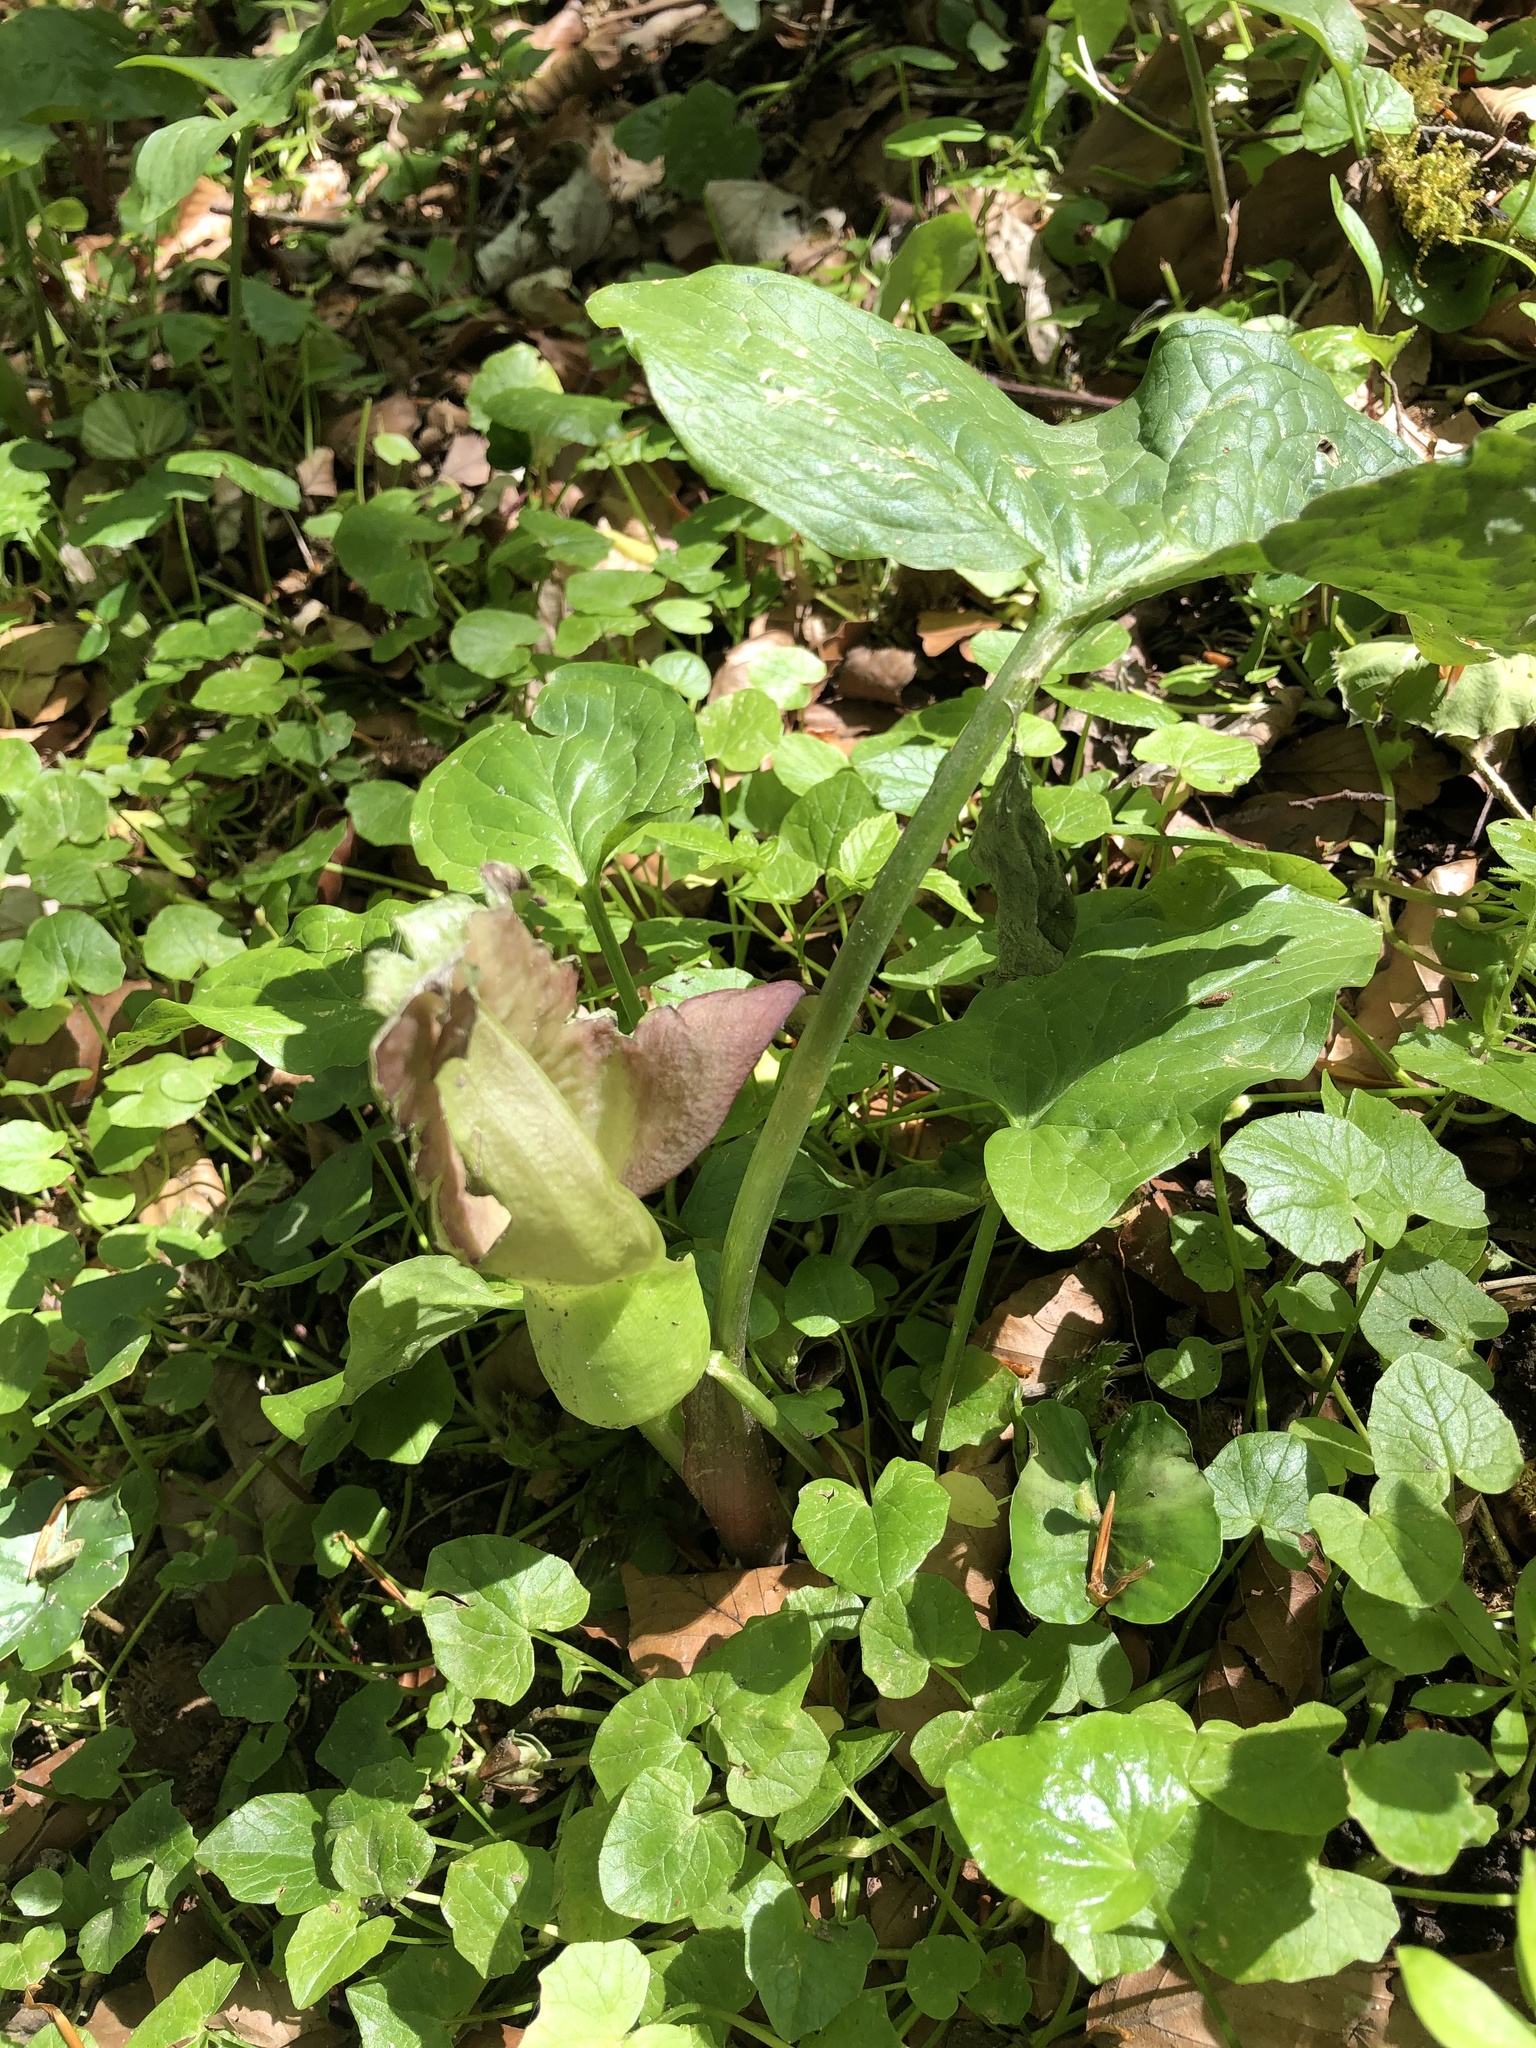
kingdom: Plantae
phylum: Tracheophyta
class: Liliopsida
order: Alismatales
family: Araceae
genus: Arum
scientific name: Arum maculatum
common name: Lords-and-ladies
